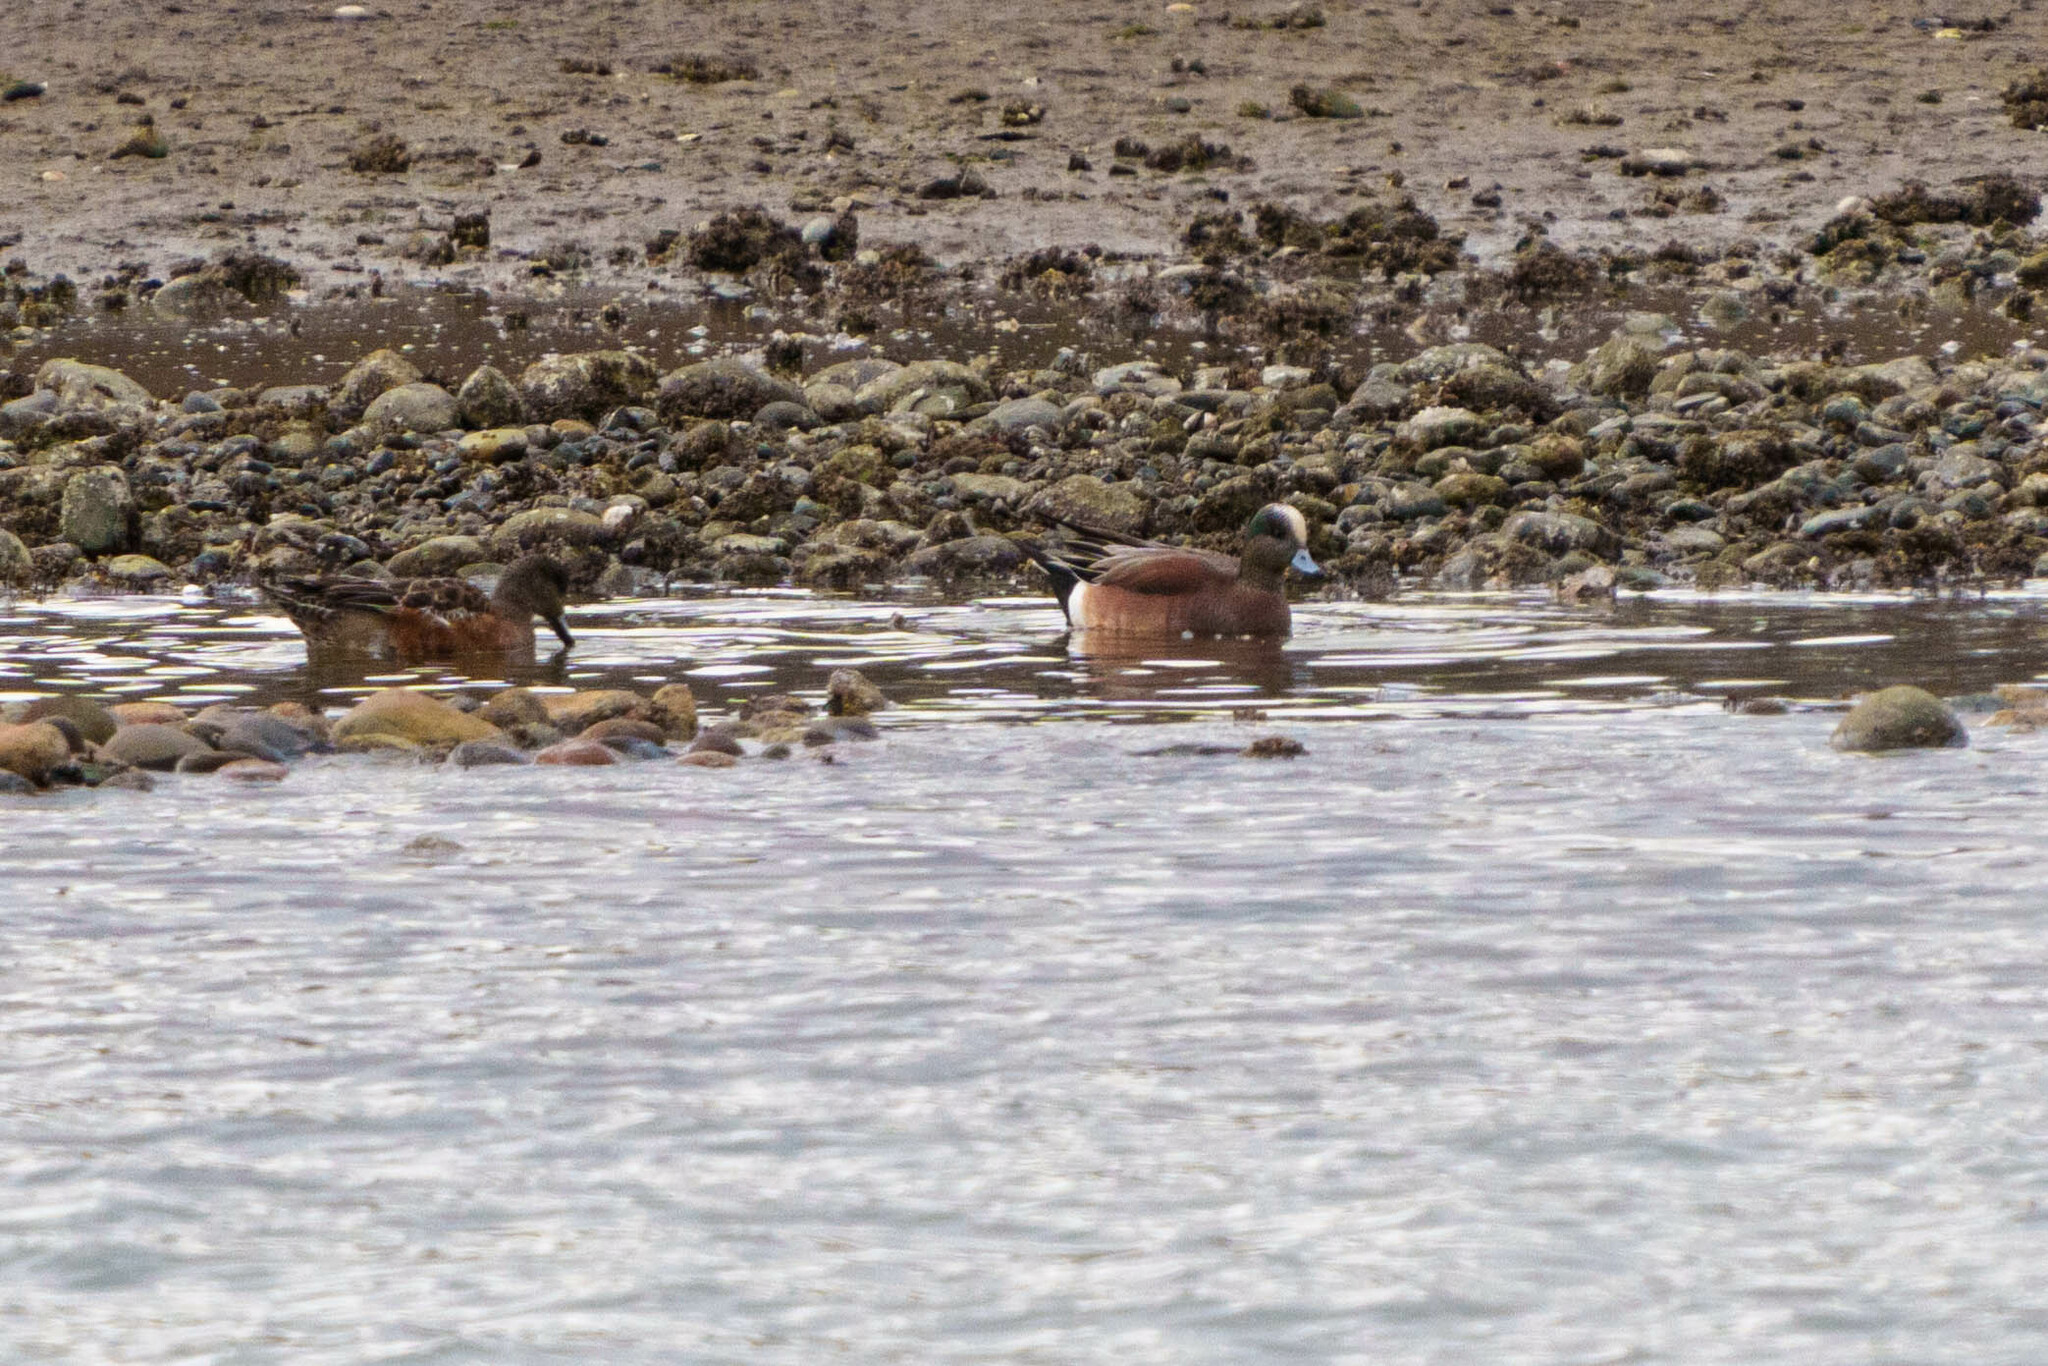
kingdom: Animalia
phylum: Chordata
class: Aves
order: Anseriformes
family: Anatidae
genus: Mareca
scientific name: Mareca americana
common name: American wigeon
